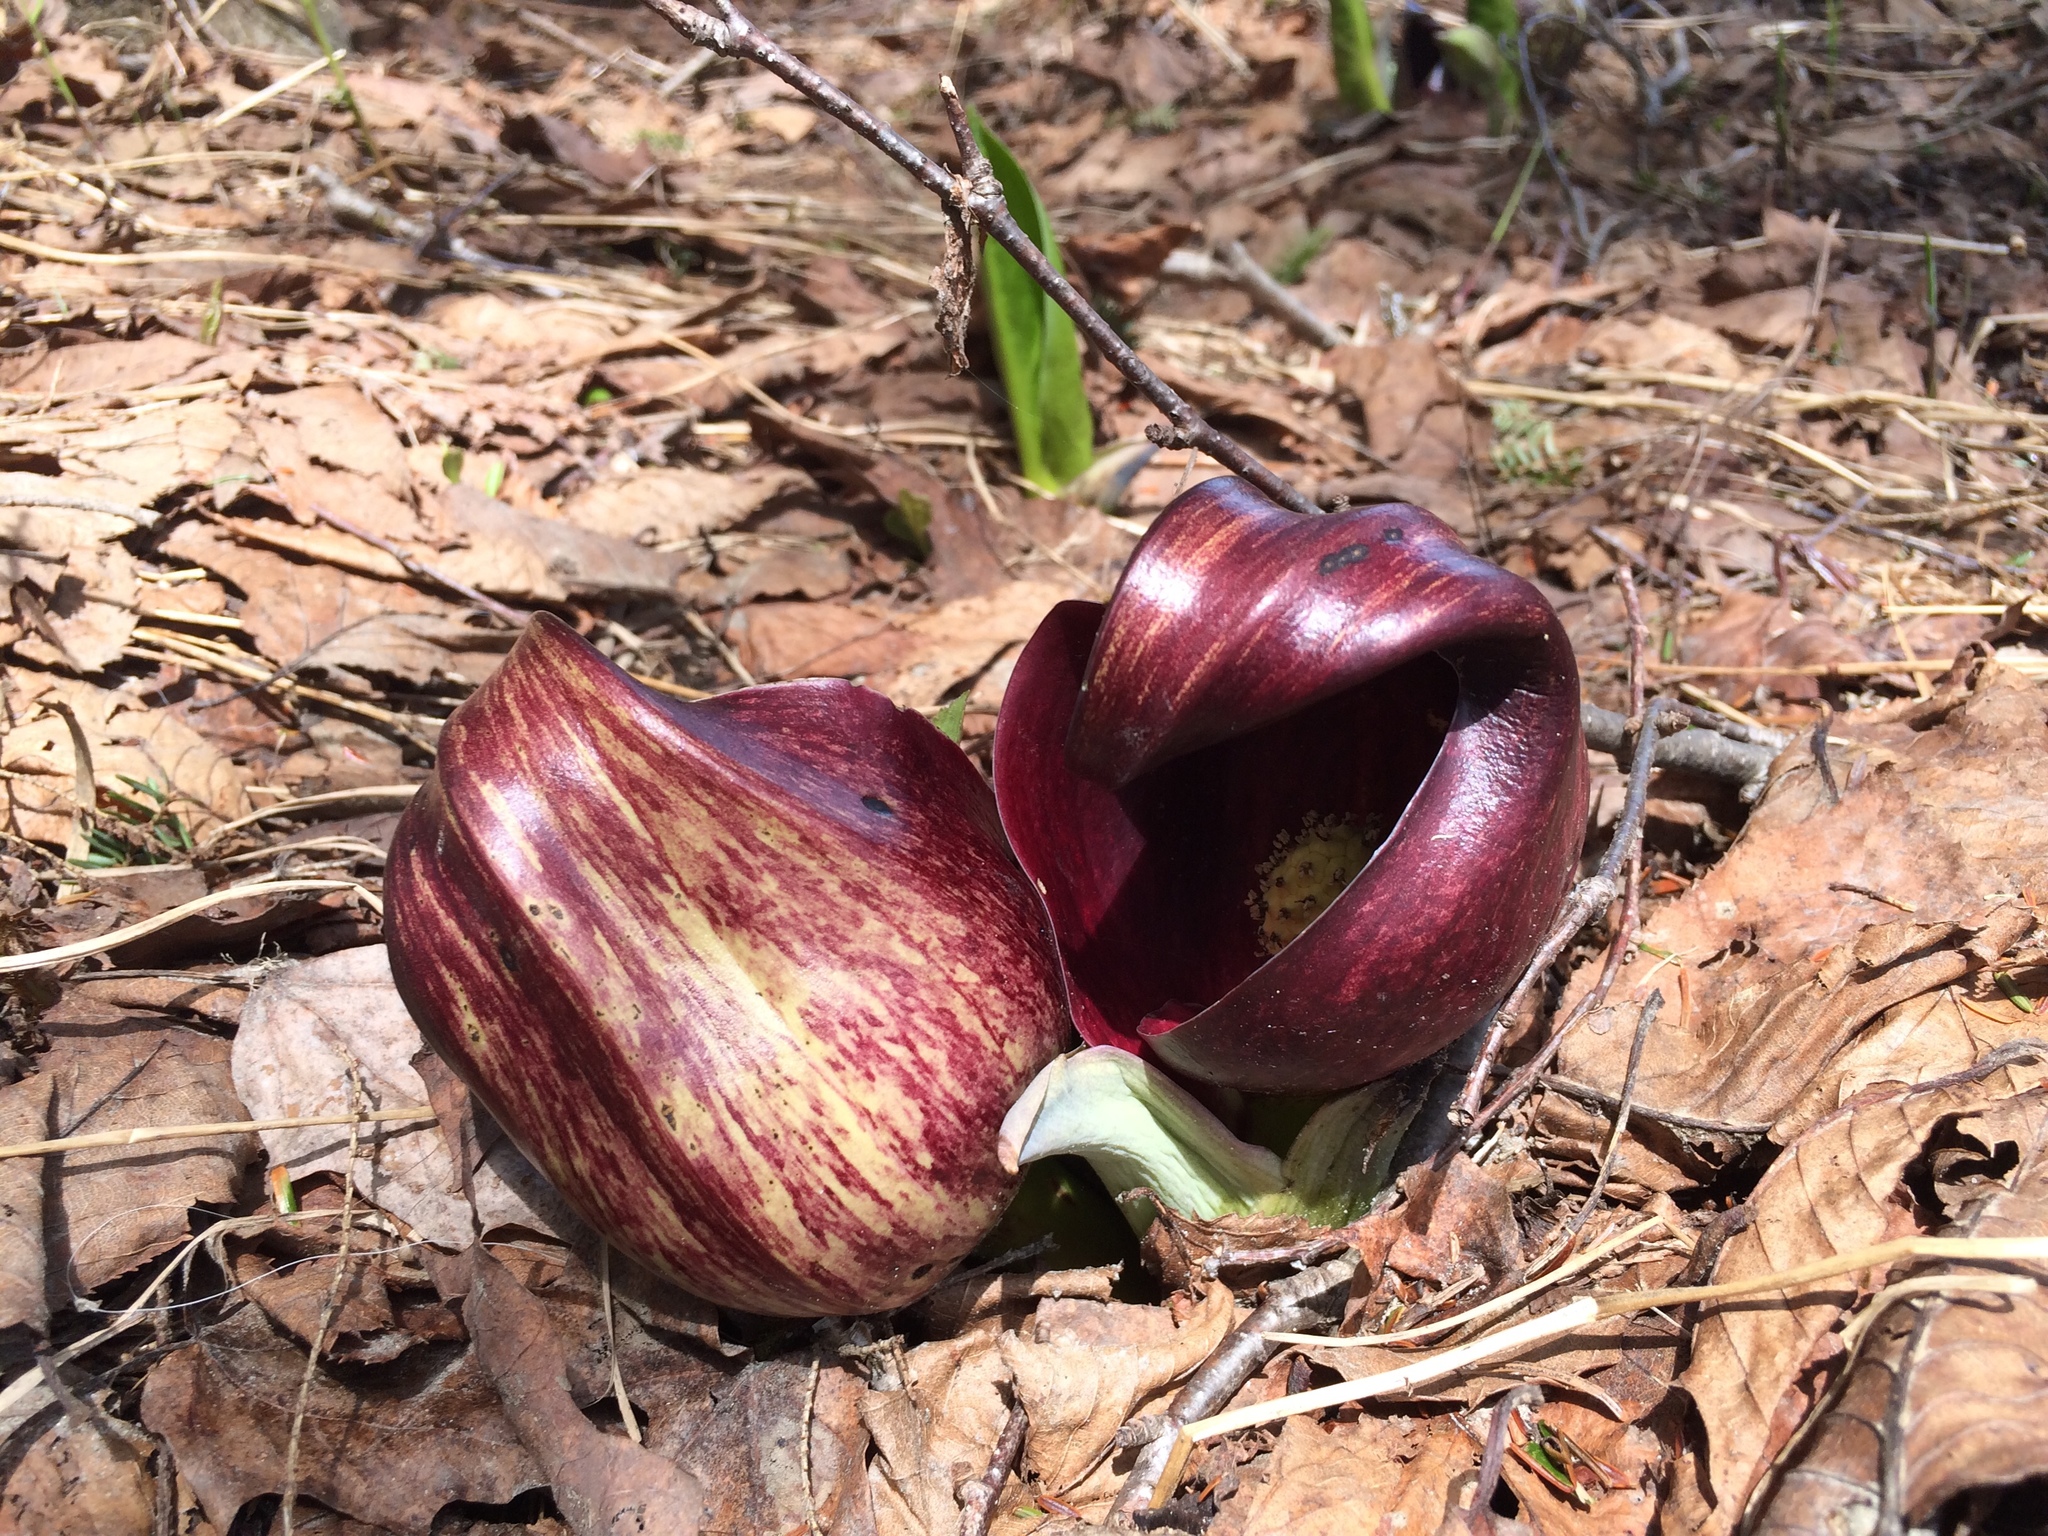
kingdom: Plantae
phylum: Tracheophyta
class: Liliopsida
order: Alismatales
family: Araceae
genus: Symplocarpus
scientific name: Symplocarpus foetidus
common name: Eastern skunk cabbage
